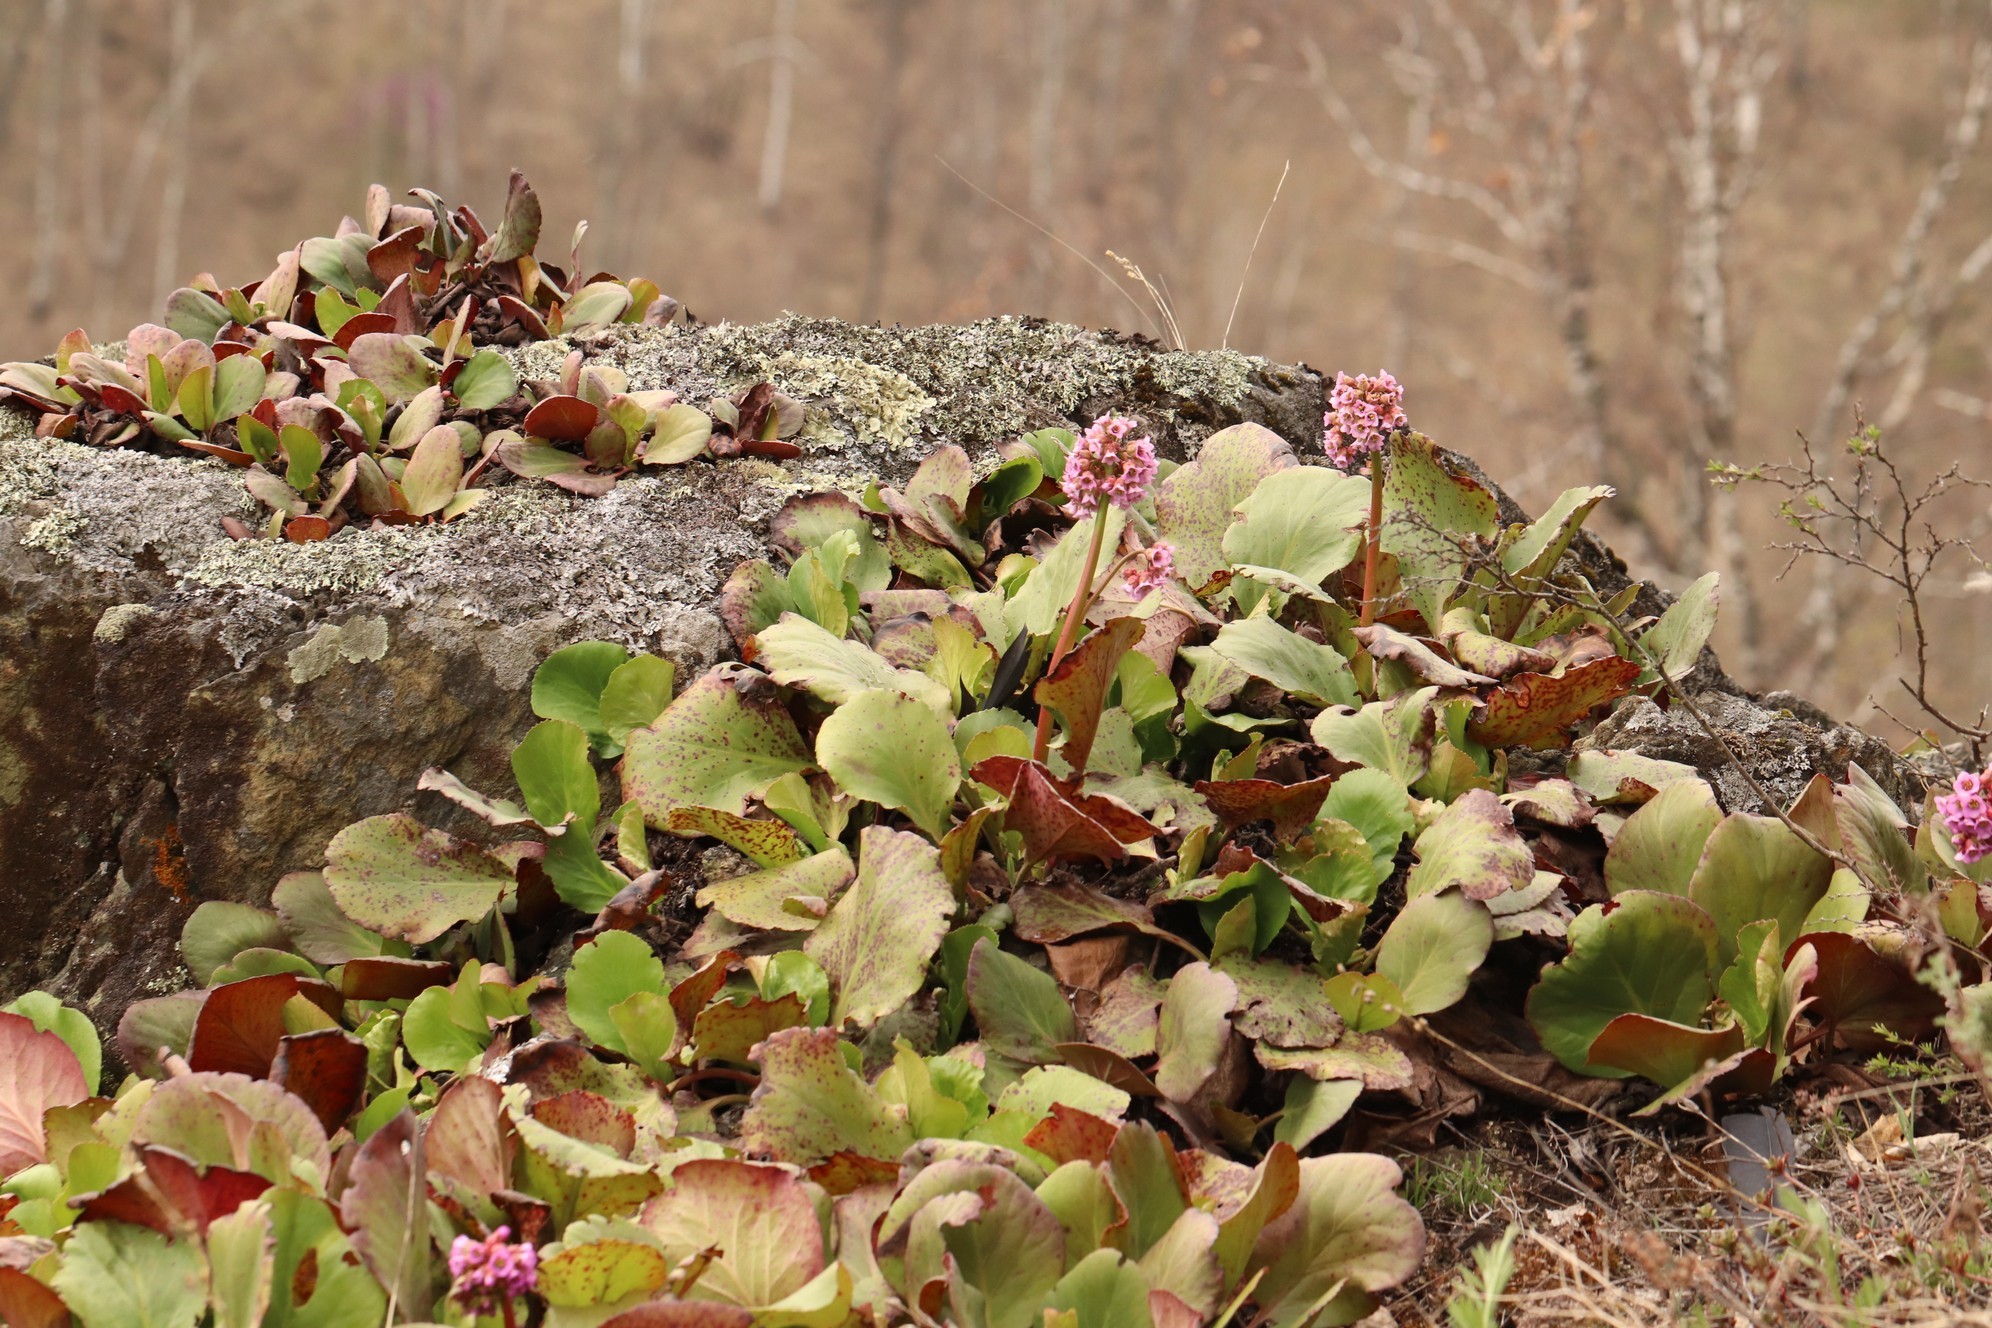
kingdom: Plantae
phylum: Tracheophyta
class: Magnoliopsida
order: Saxifragales
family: Saxifragaceae
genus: Bergenia
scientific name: Bergenia crassifolia
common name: Elephant-ears
